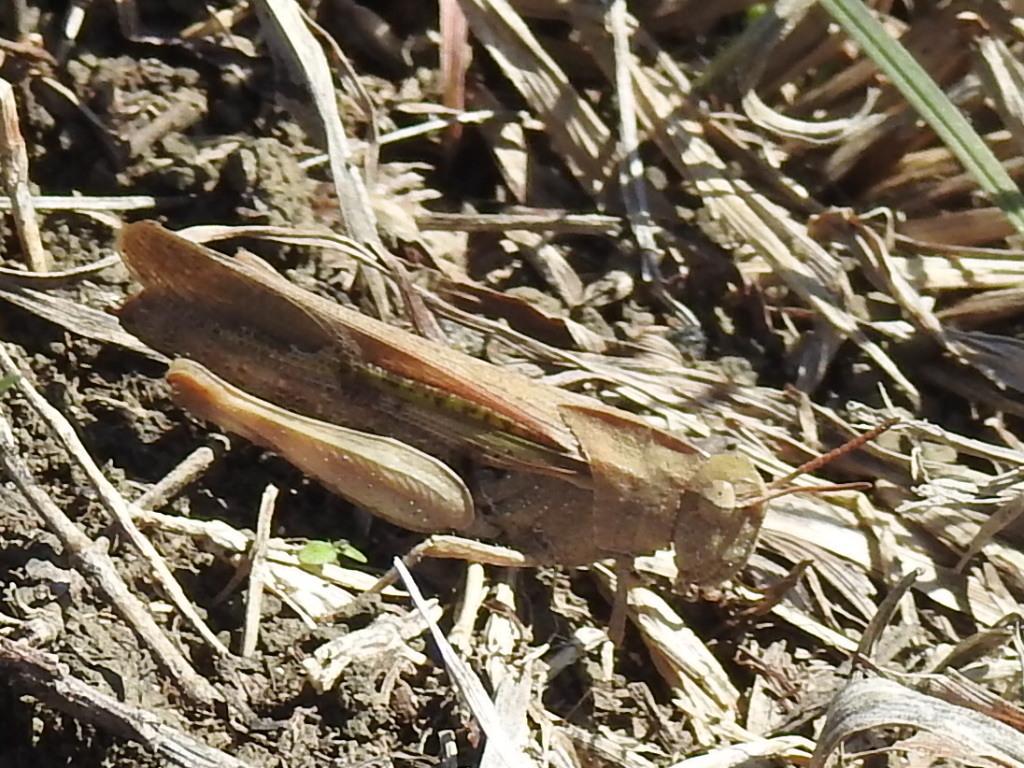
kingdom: Animalia
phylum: Arthropoda
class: Insecta
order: Orthoptera
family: Acrididae
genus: Chortophaga
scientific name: Chortophaga viridifasciata
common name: Green-striped grasshopper
